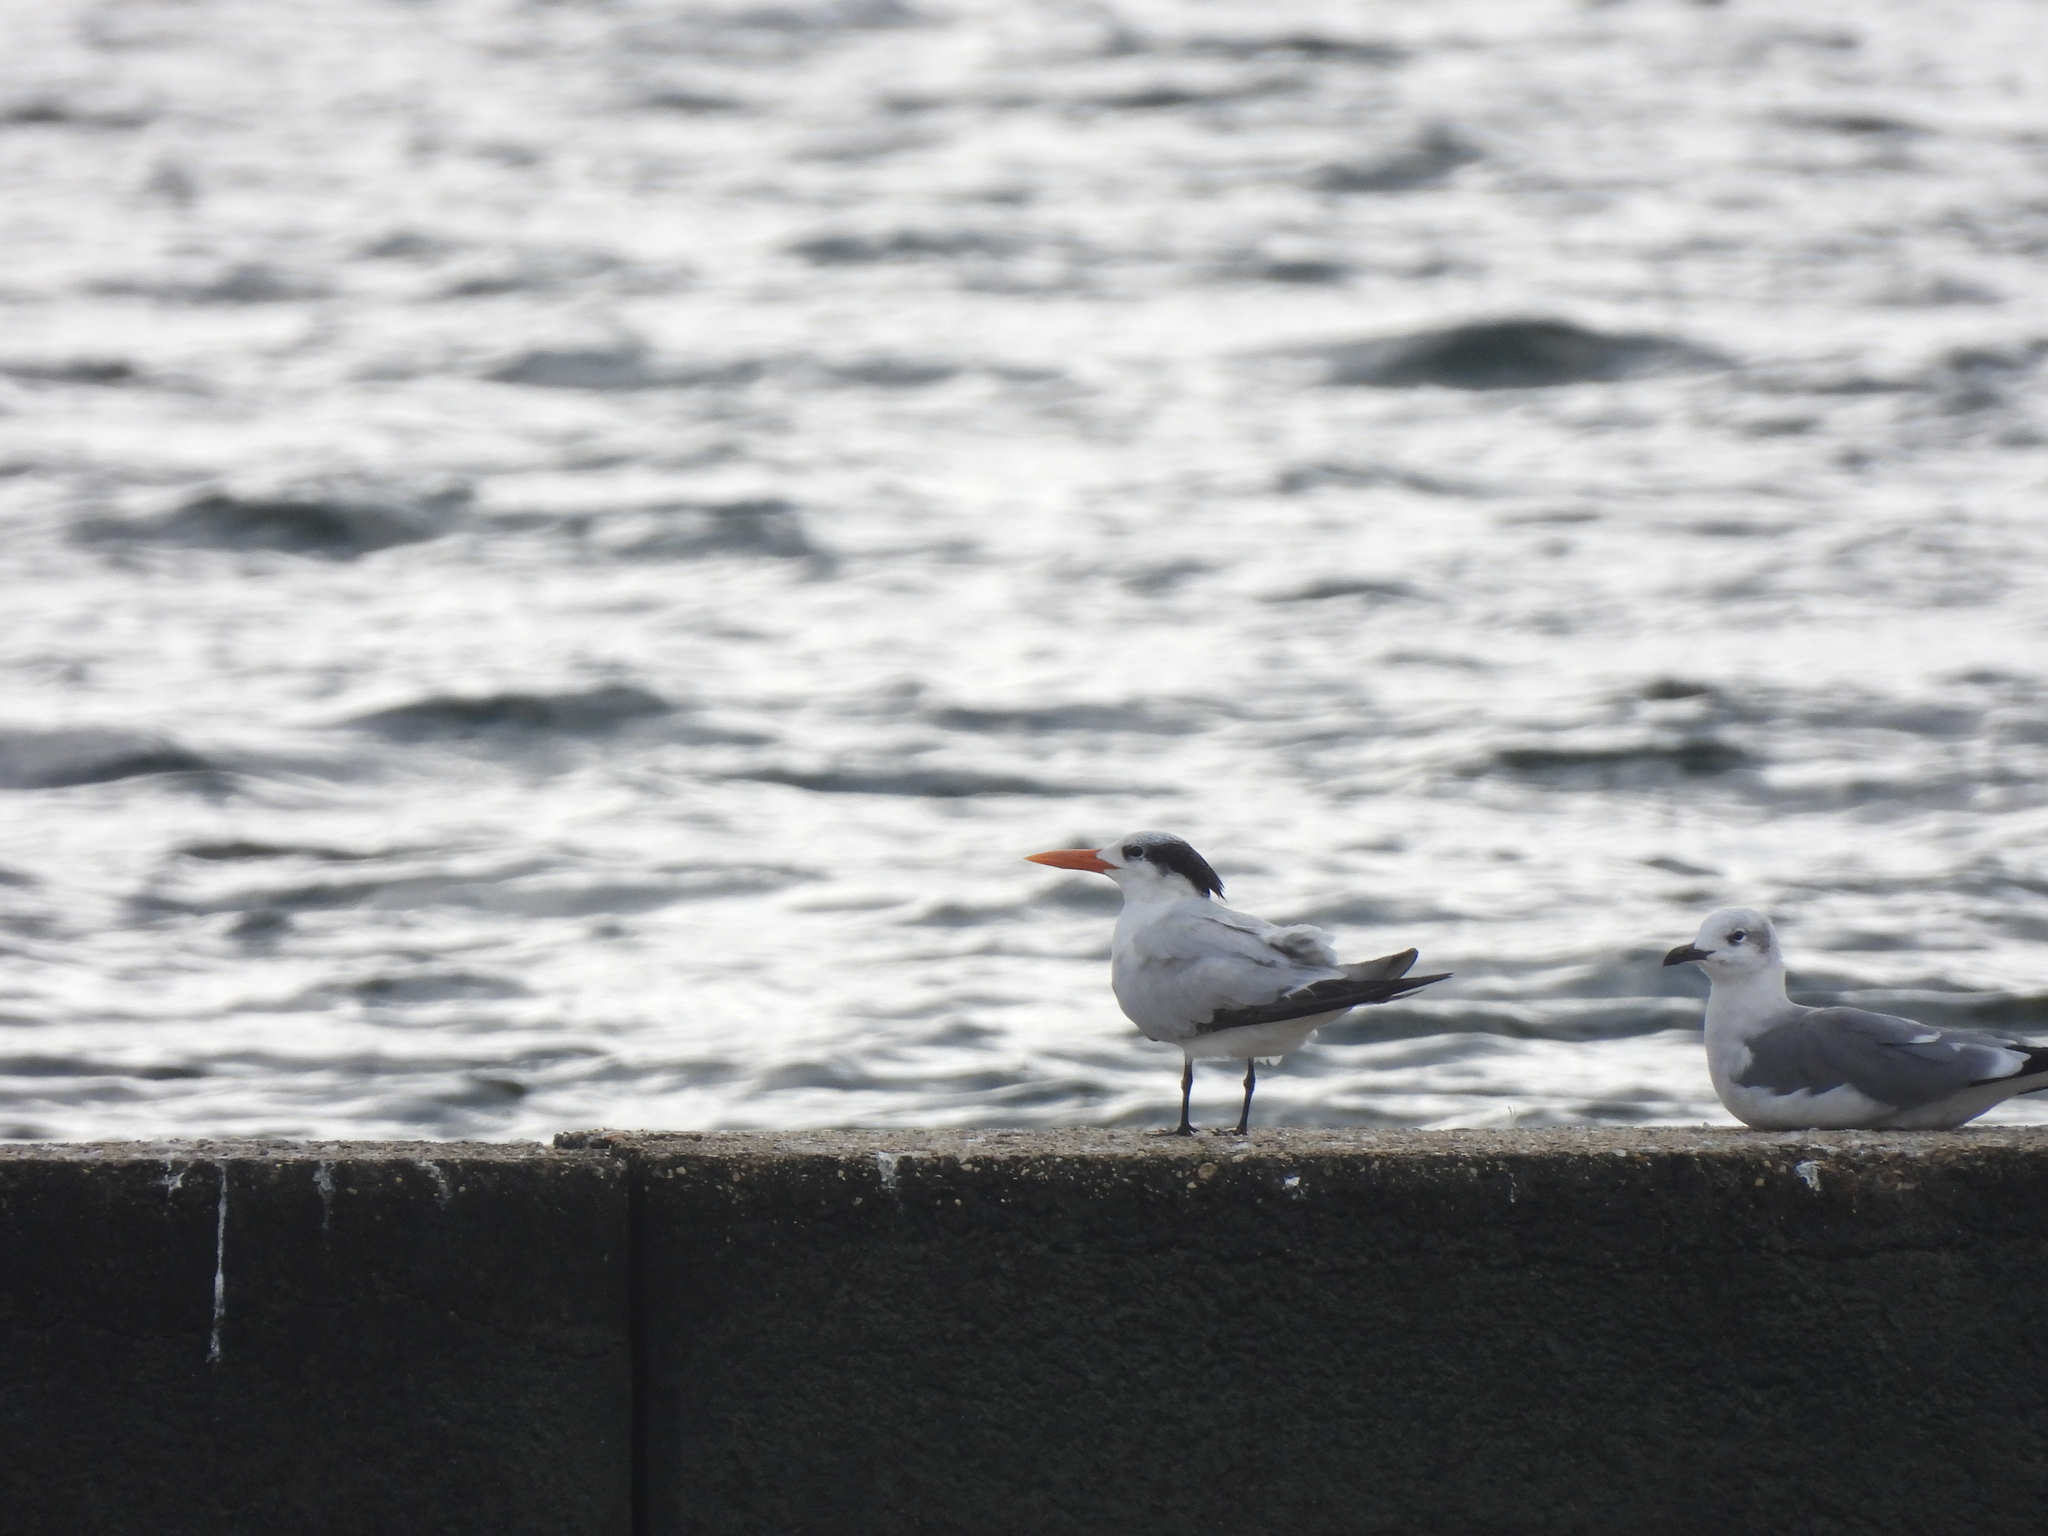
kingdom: Animalia
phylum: Chordata
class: Aves
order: Charadriiformes
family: Laridae
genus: Thalasseus
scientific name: Thalasseus maximus
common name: Royal tern
